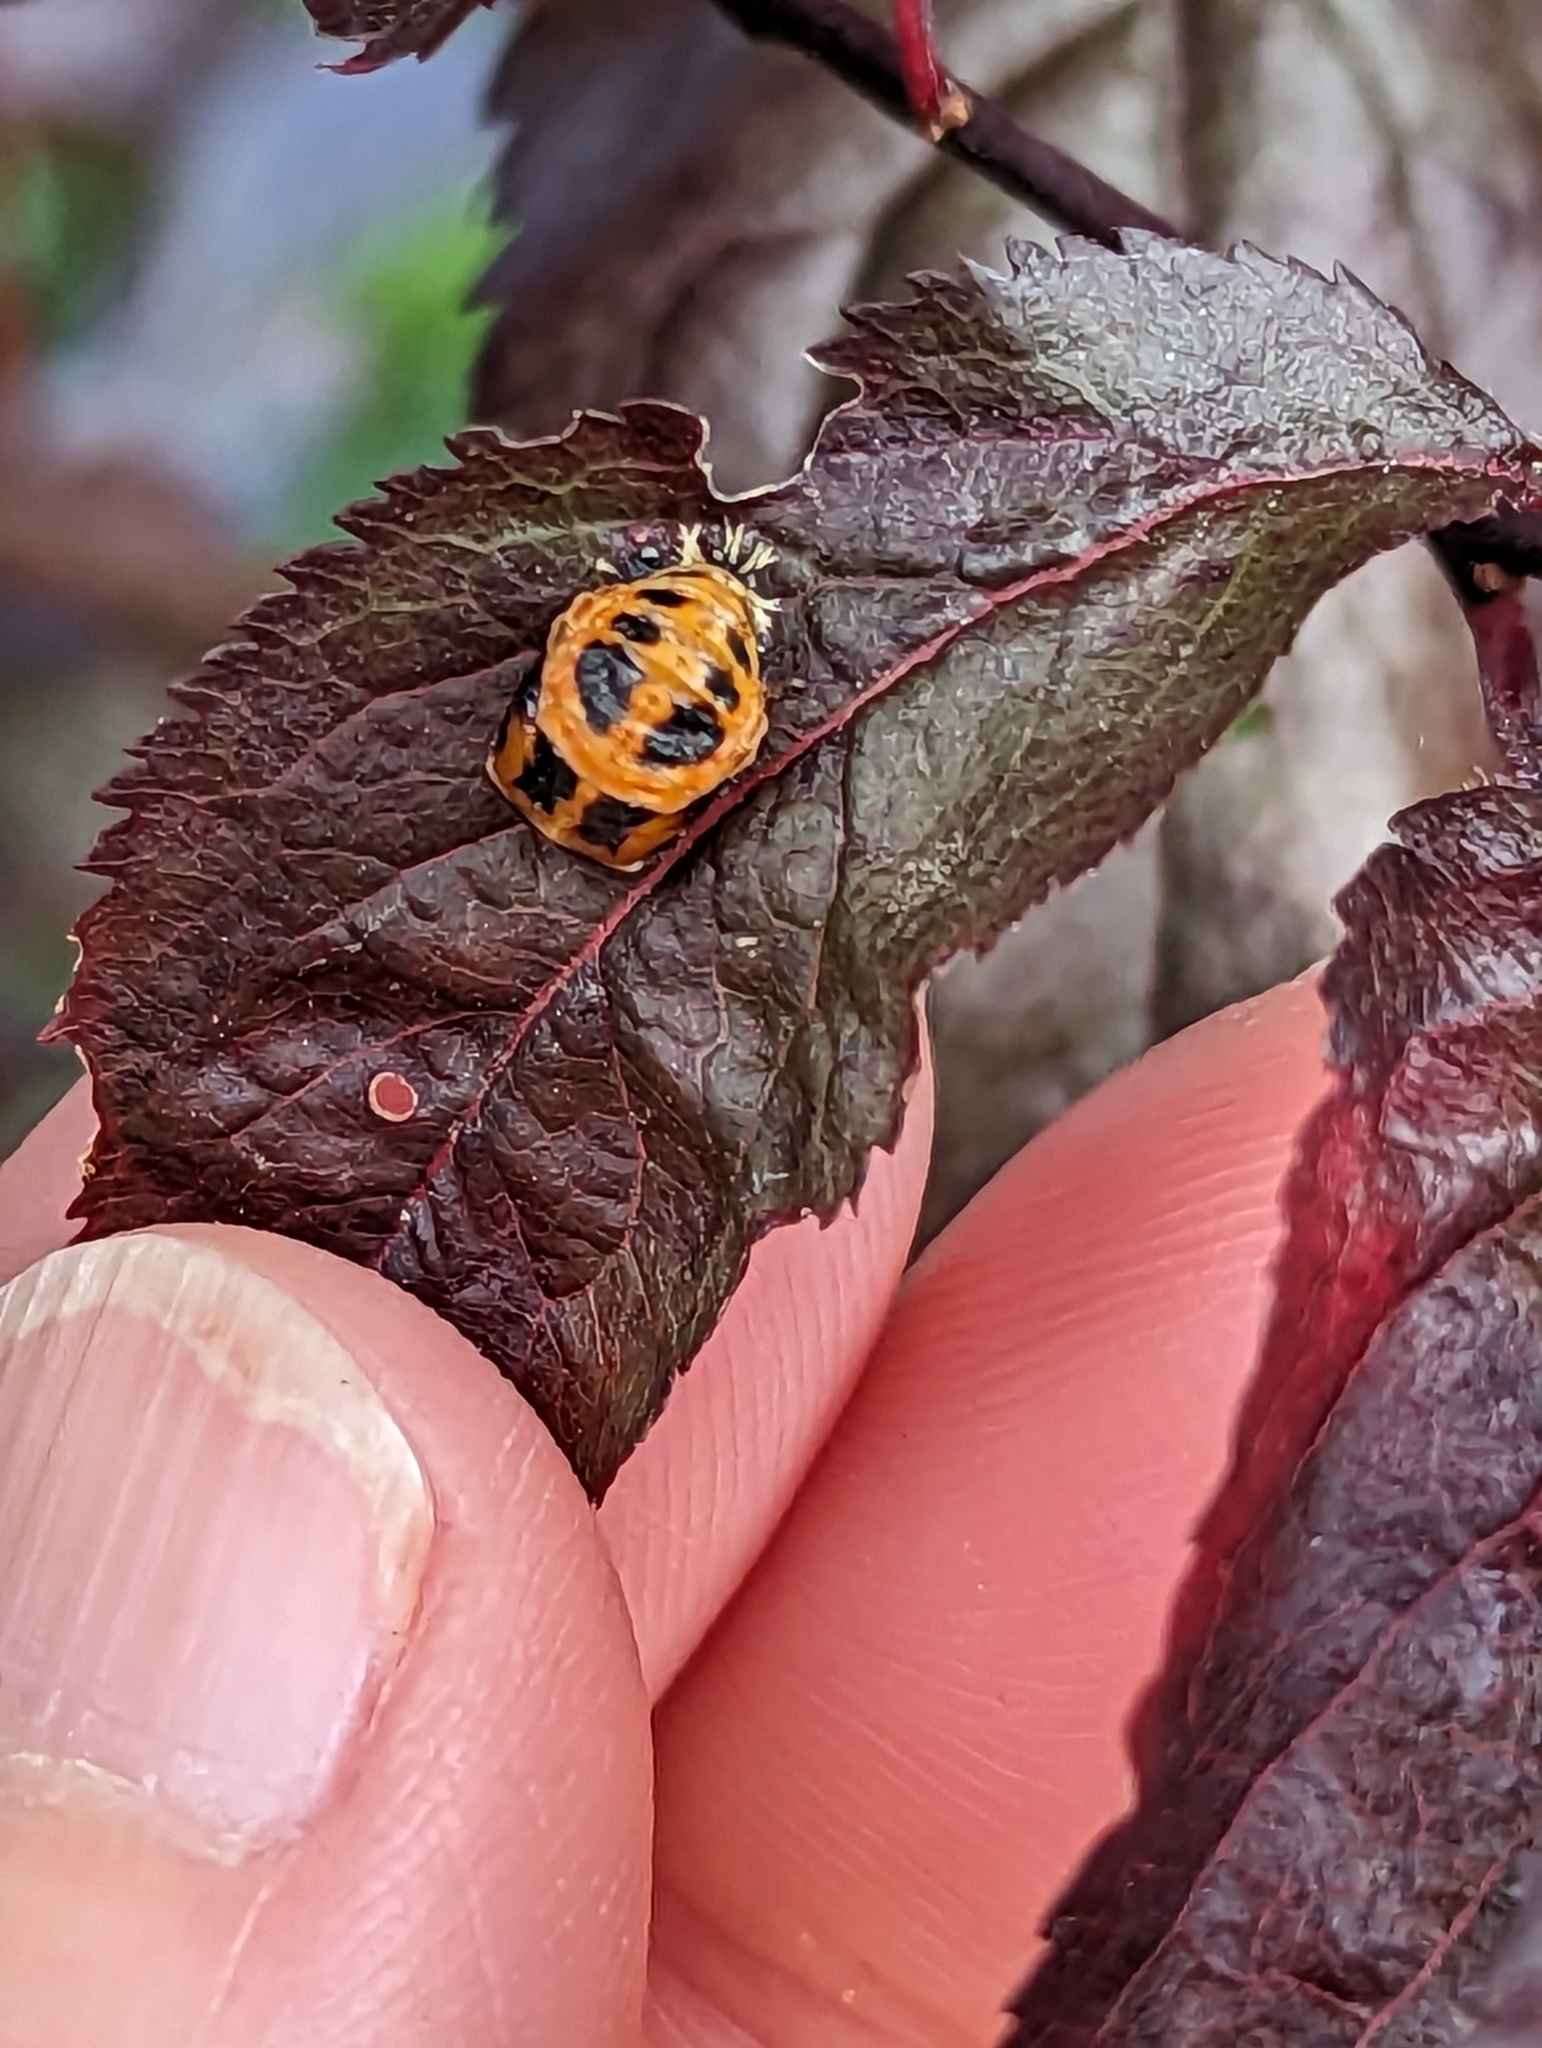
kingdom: Animalia
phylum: Arthropoda
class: Insecta
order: Coleoptera
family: Coccinellidae
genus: Harmonia
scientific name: Harmonia axyridis
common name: Harlequin ladybird
